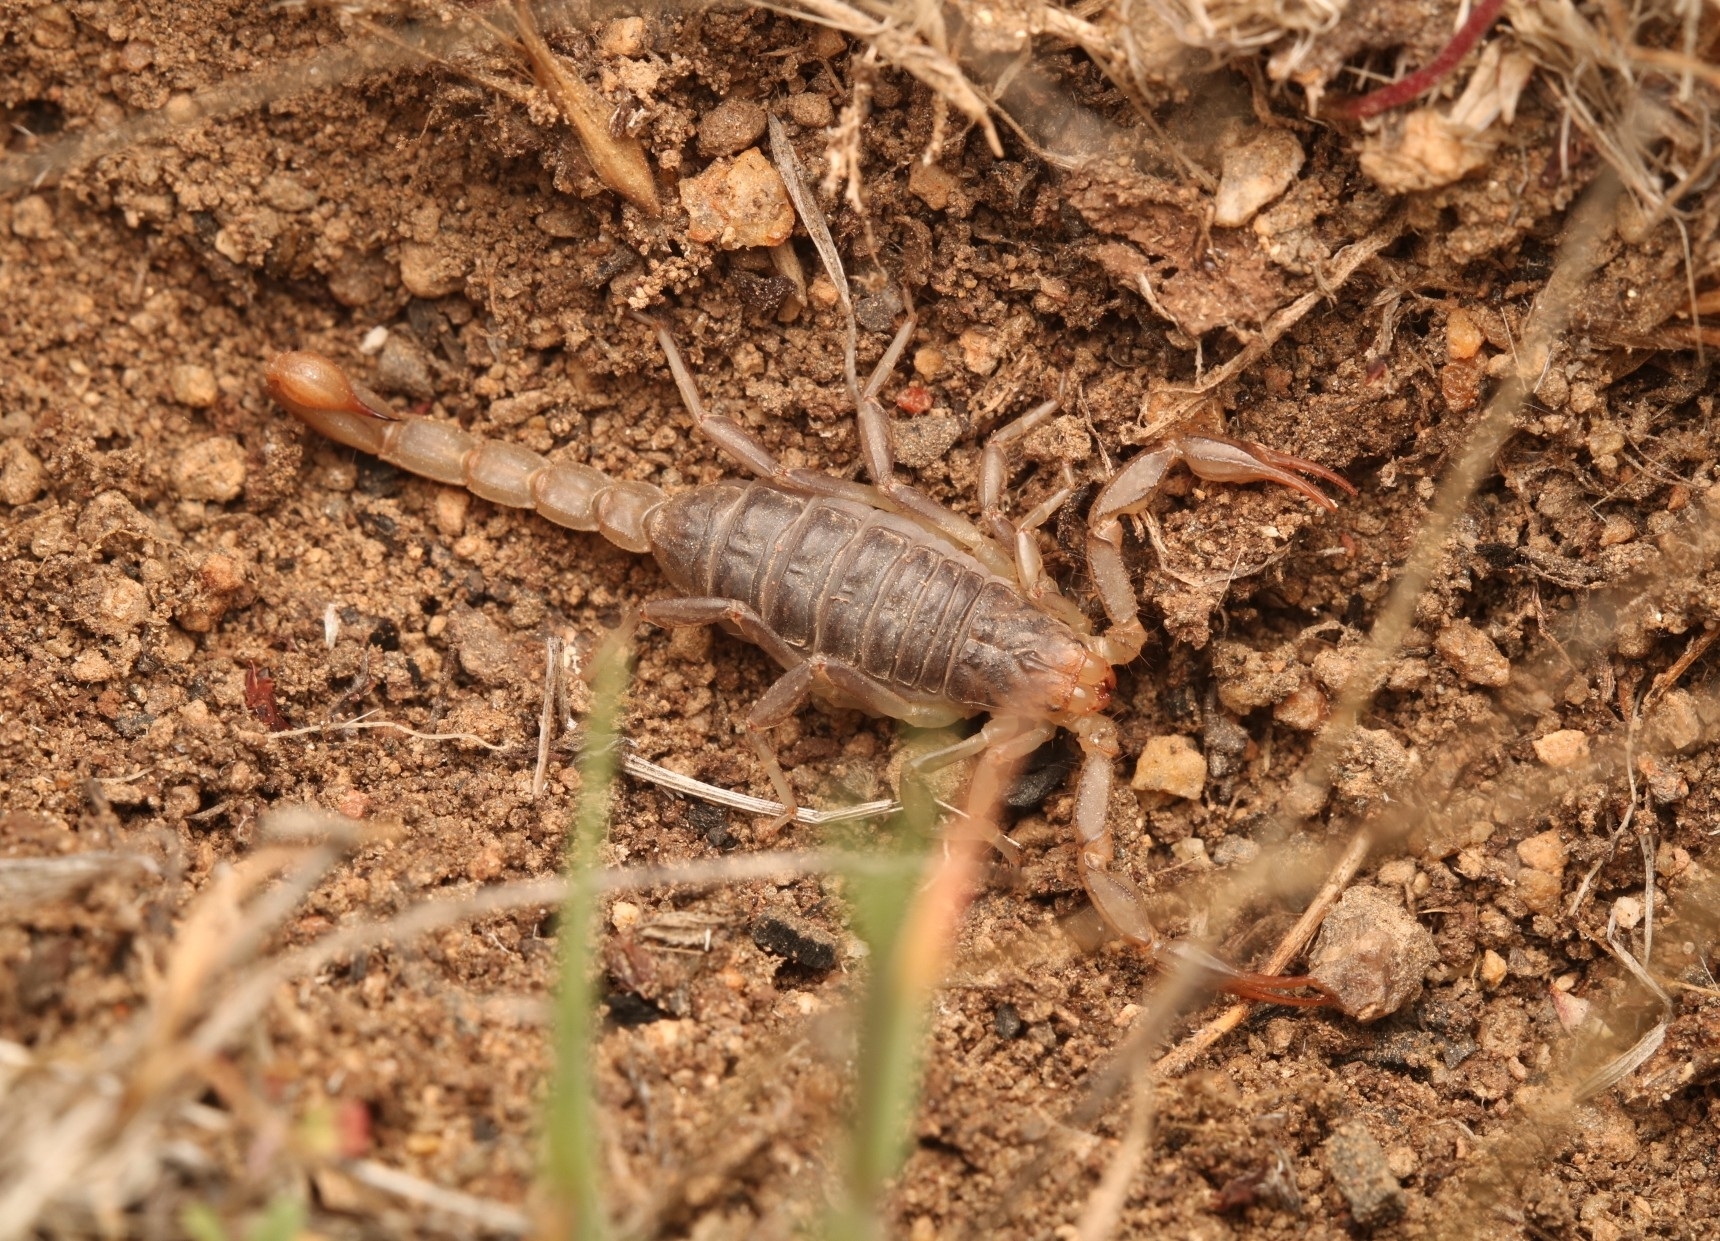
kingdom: Animalia
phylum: Arthropoda
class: Arachnida
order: Scorpiones
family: Vaejovidae
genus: Paruroctonus
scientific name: Paruroctonus silvestrii
